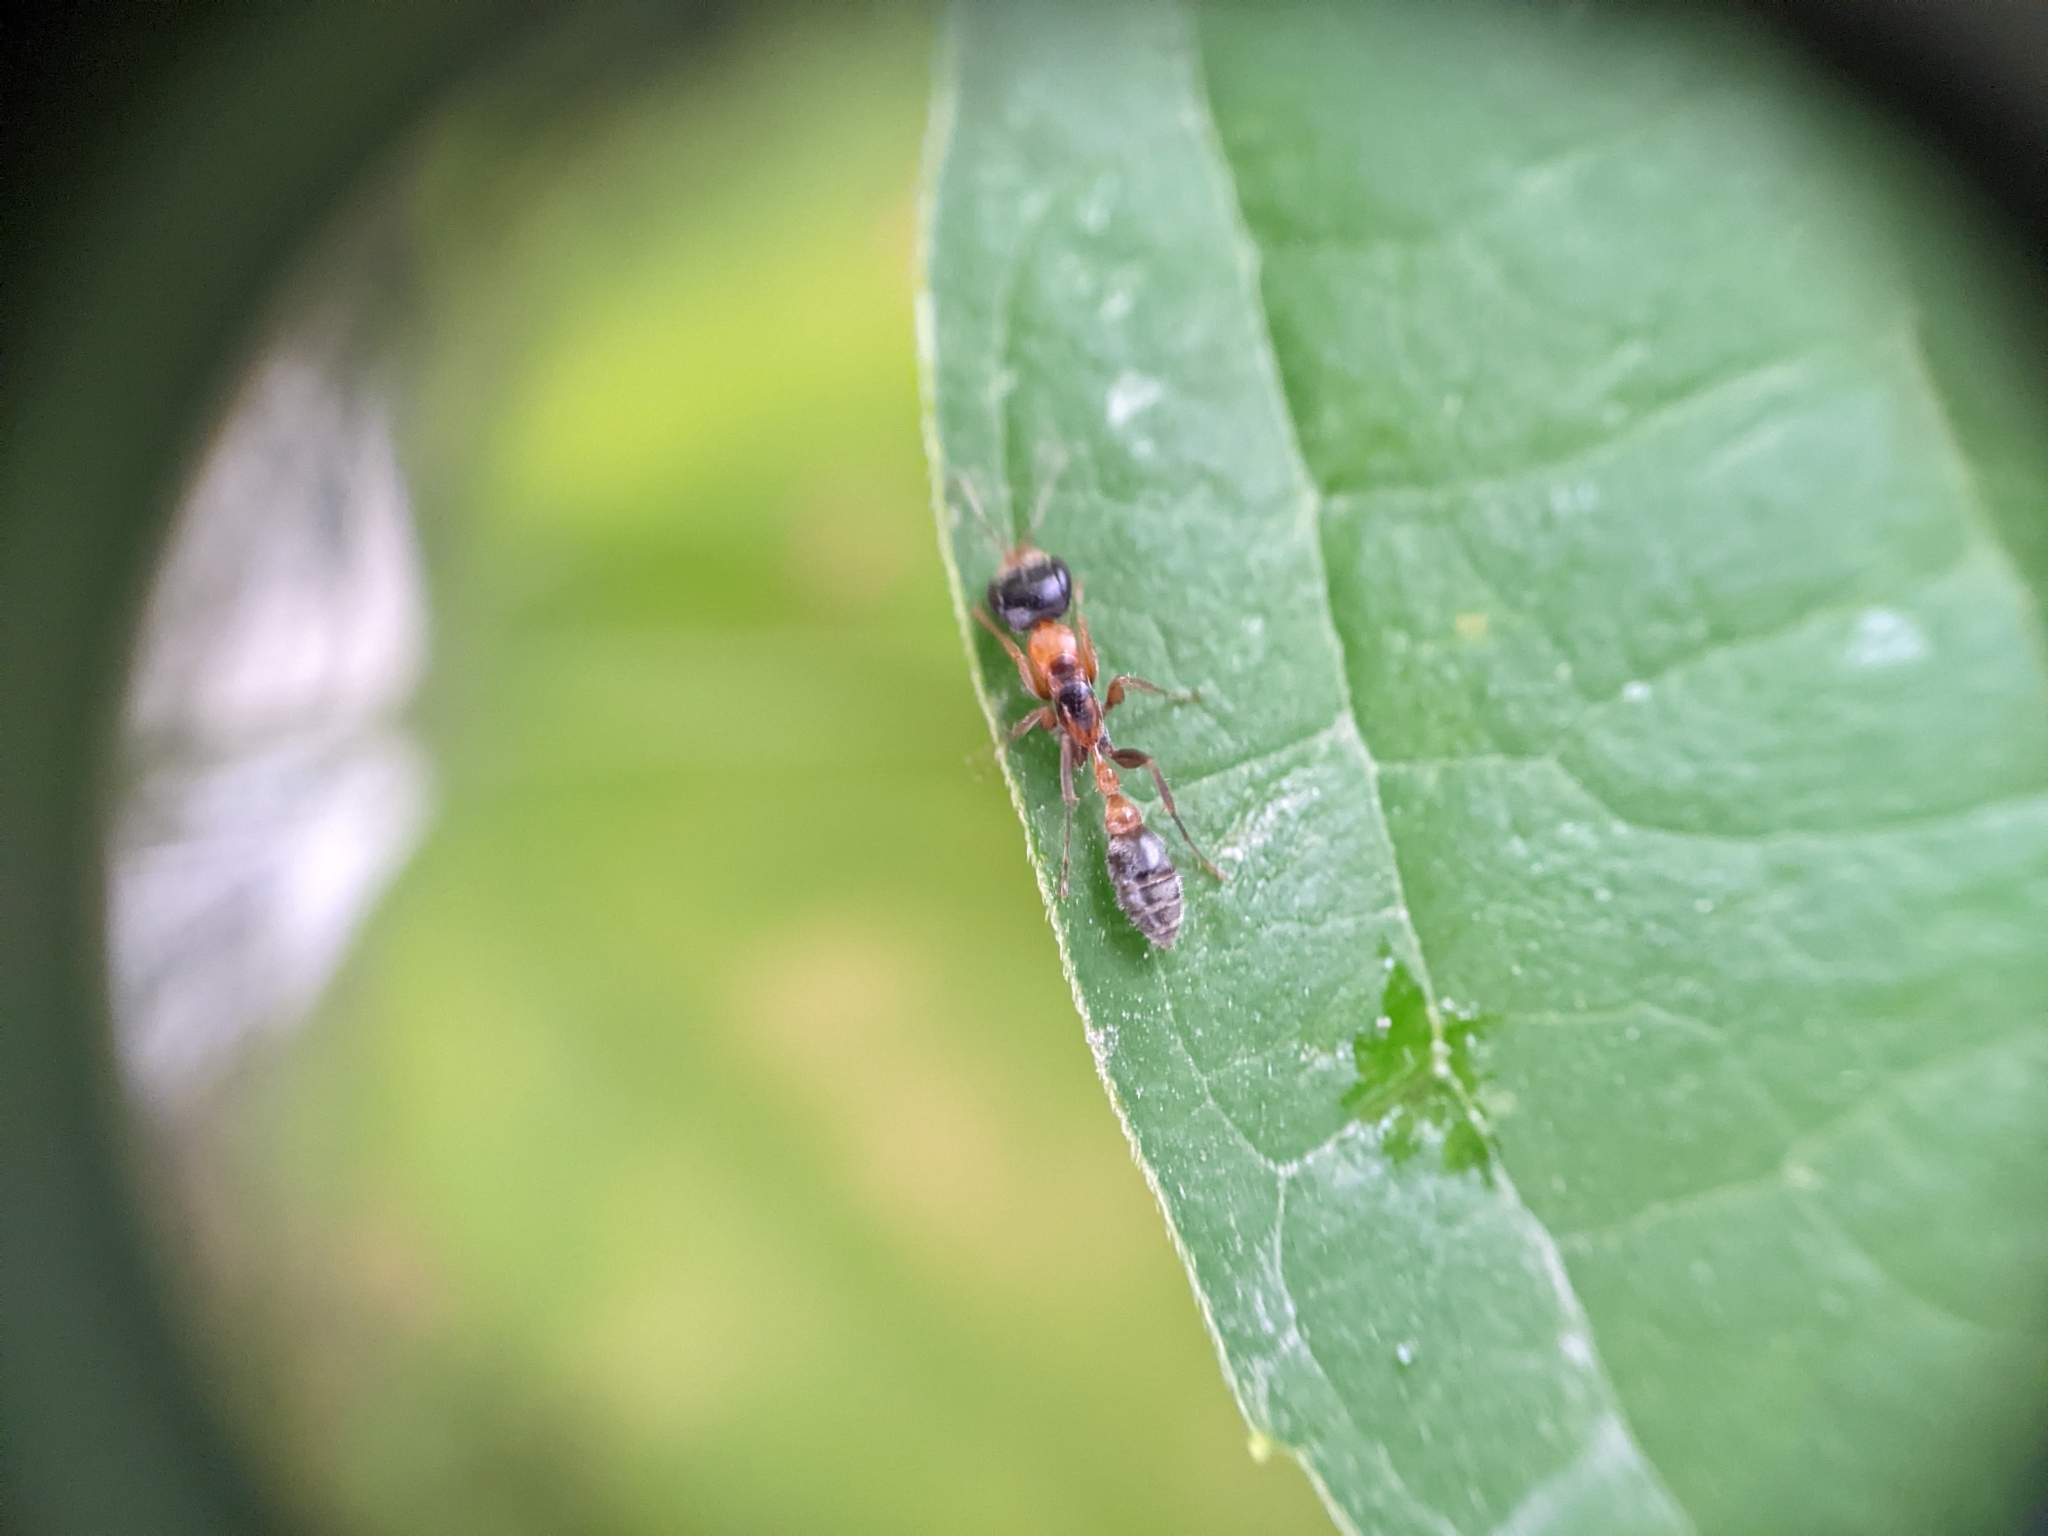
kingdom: Animalia
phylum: Arthropoda
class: Insecta
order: Hymenoptera
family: Formicidae
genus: Pseudomyrmex
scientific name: Pseudomyrmex gracilis
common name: Graceful twig ant
